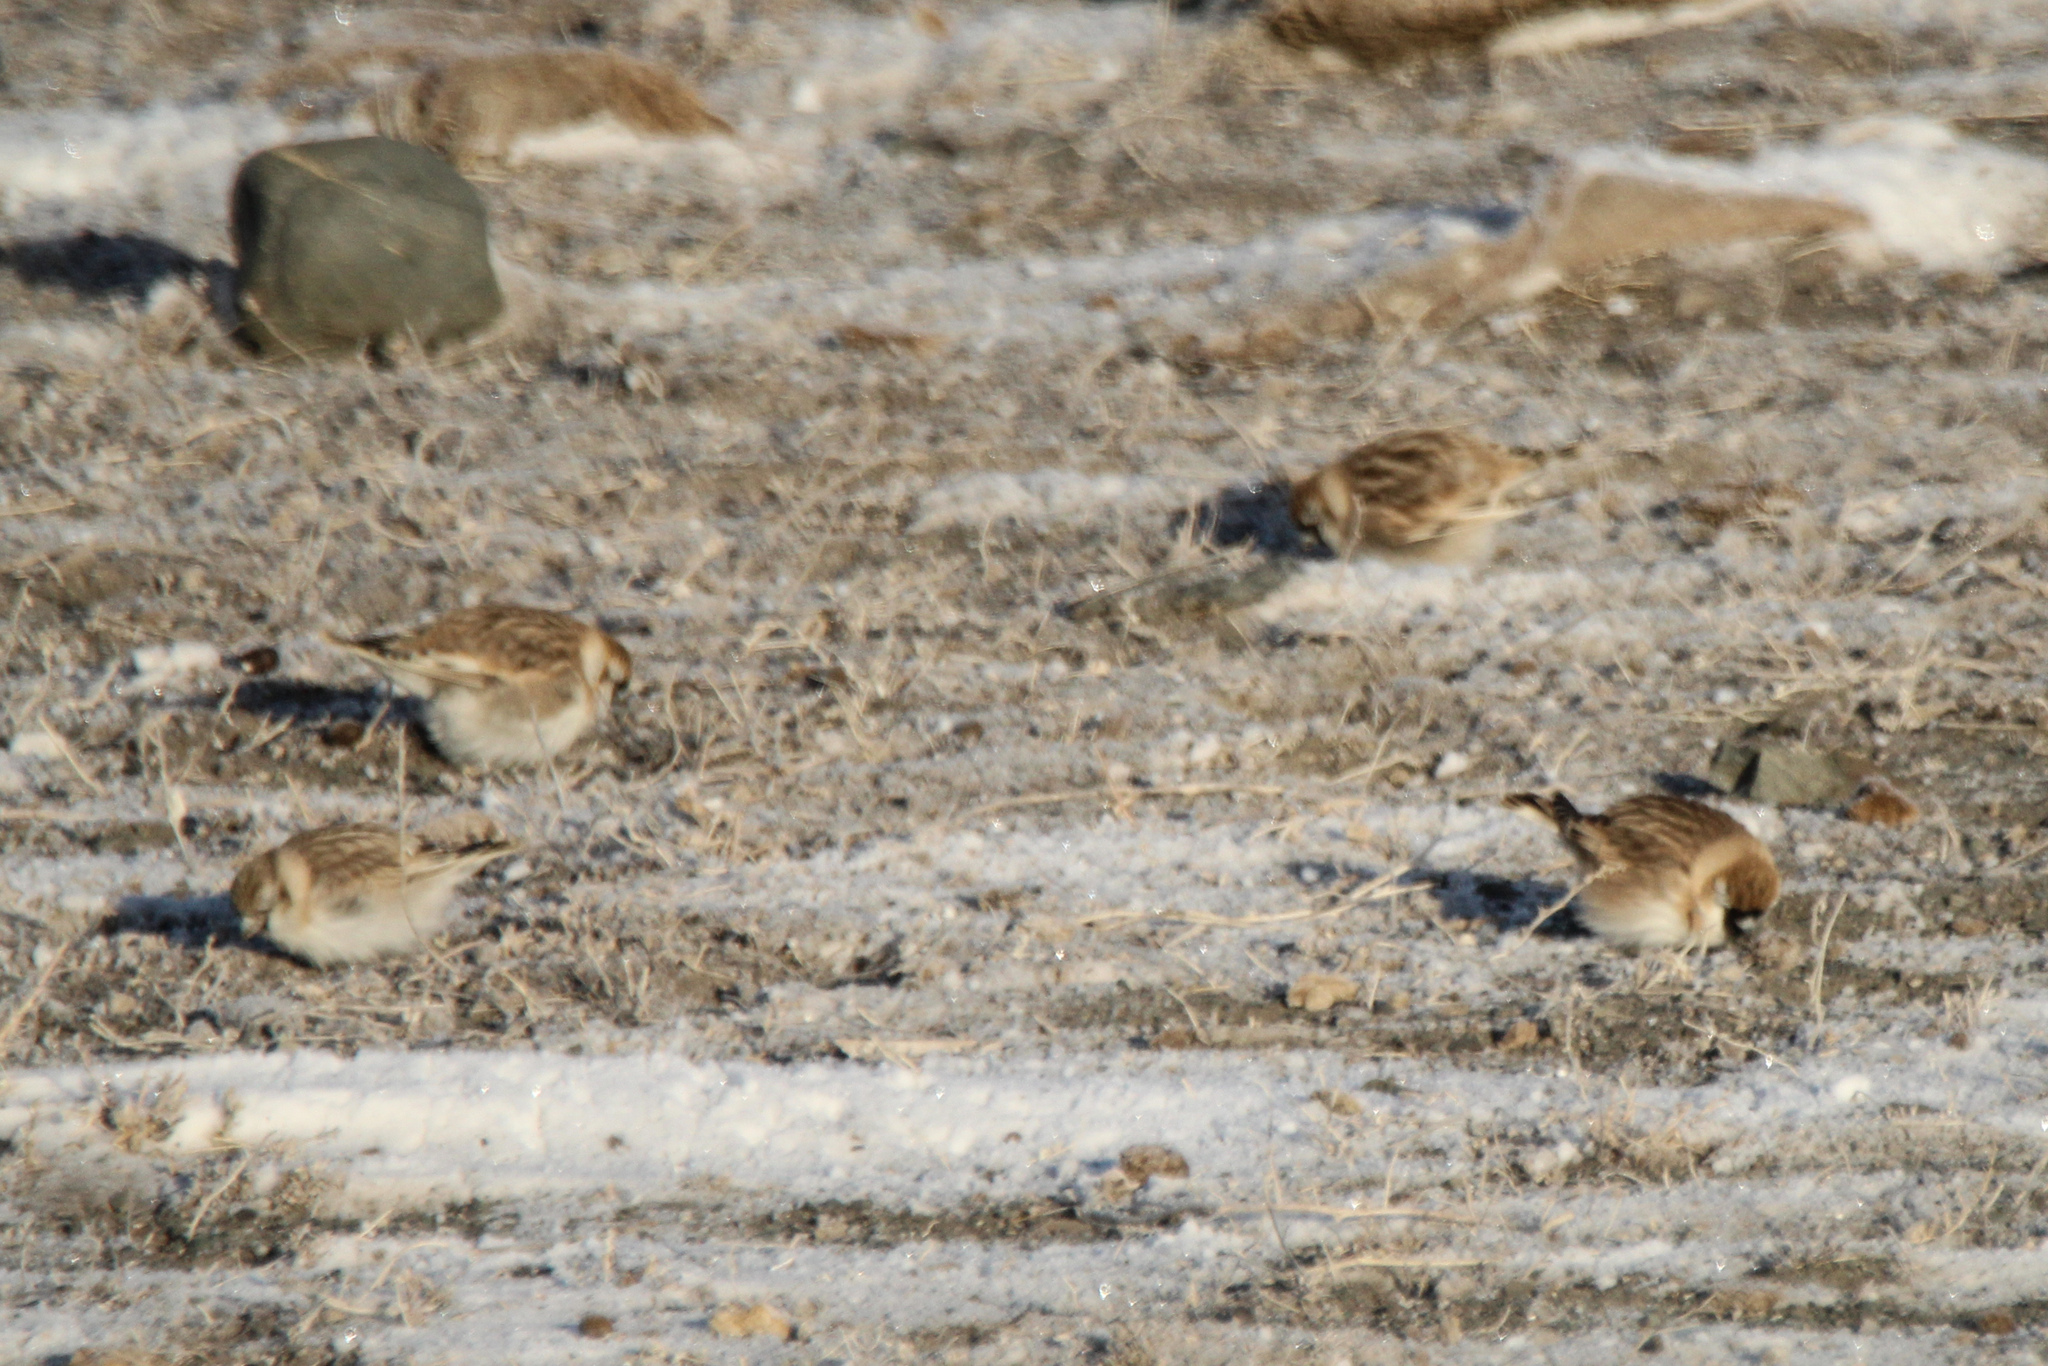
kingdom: Animalia
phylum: Chordata
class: Aves
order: Passeriformes
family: Passeridae
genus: Pyrgilauda
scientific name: Pyrgilauda davidiana
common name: Pere david's snowfinch
